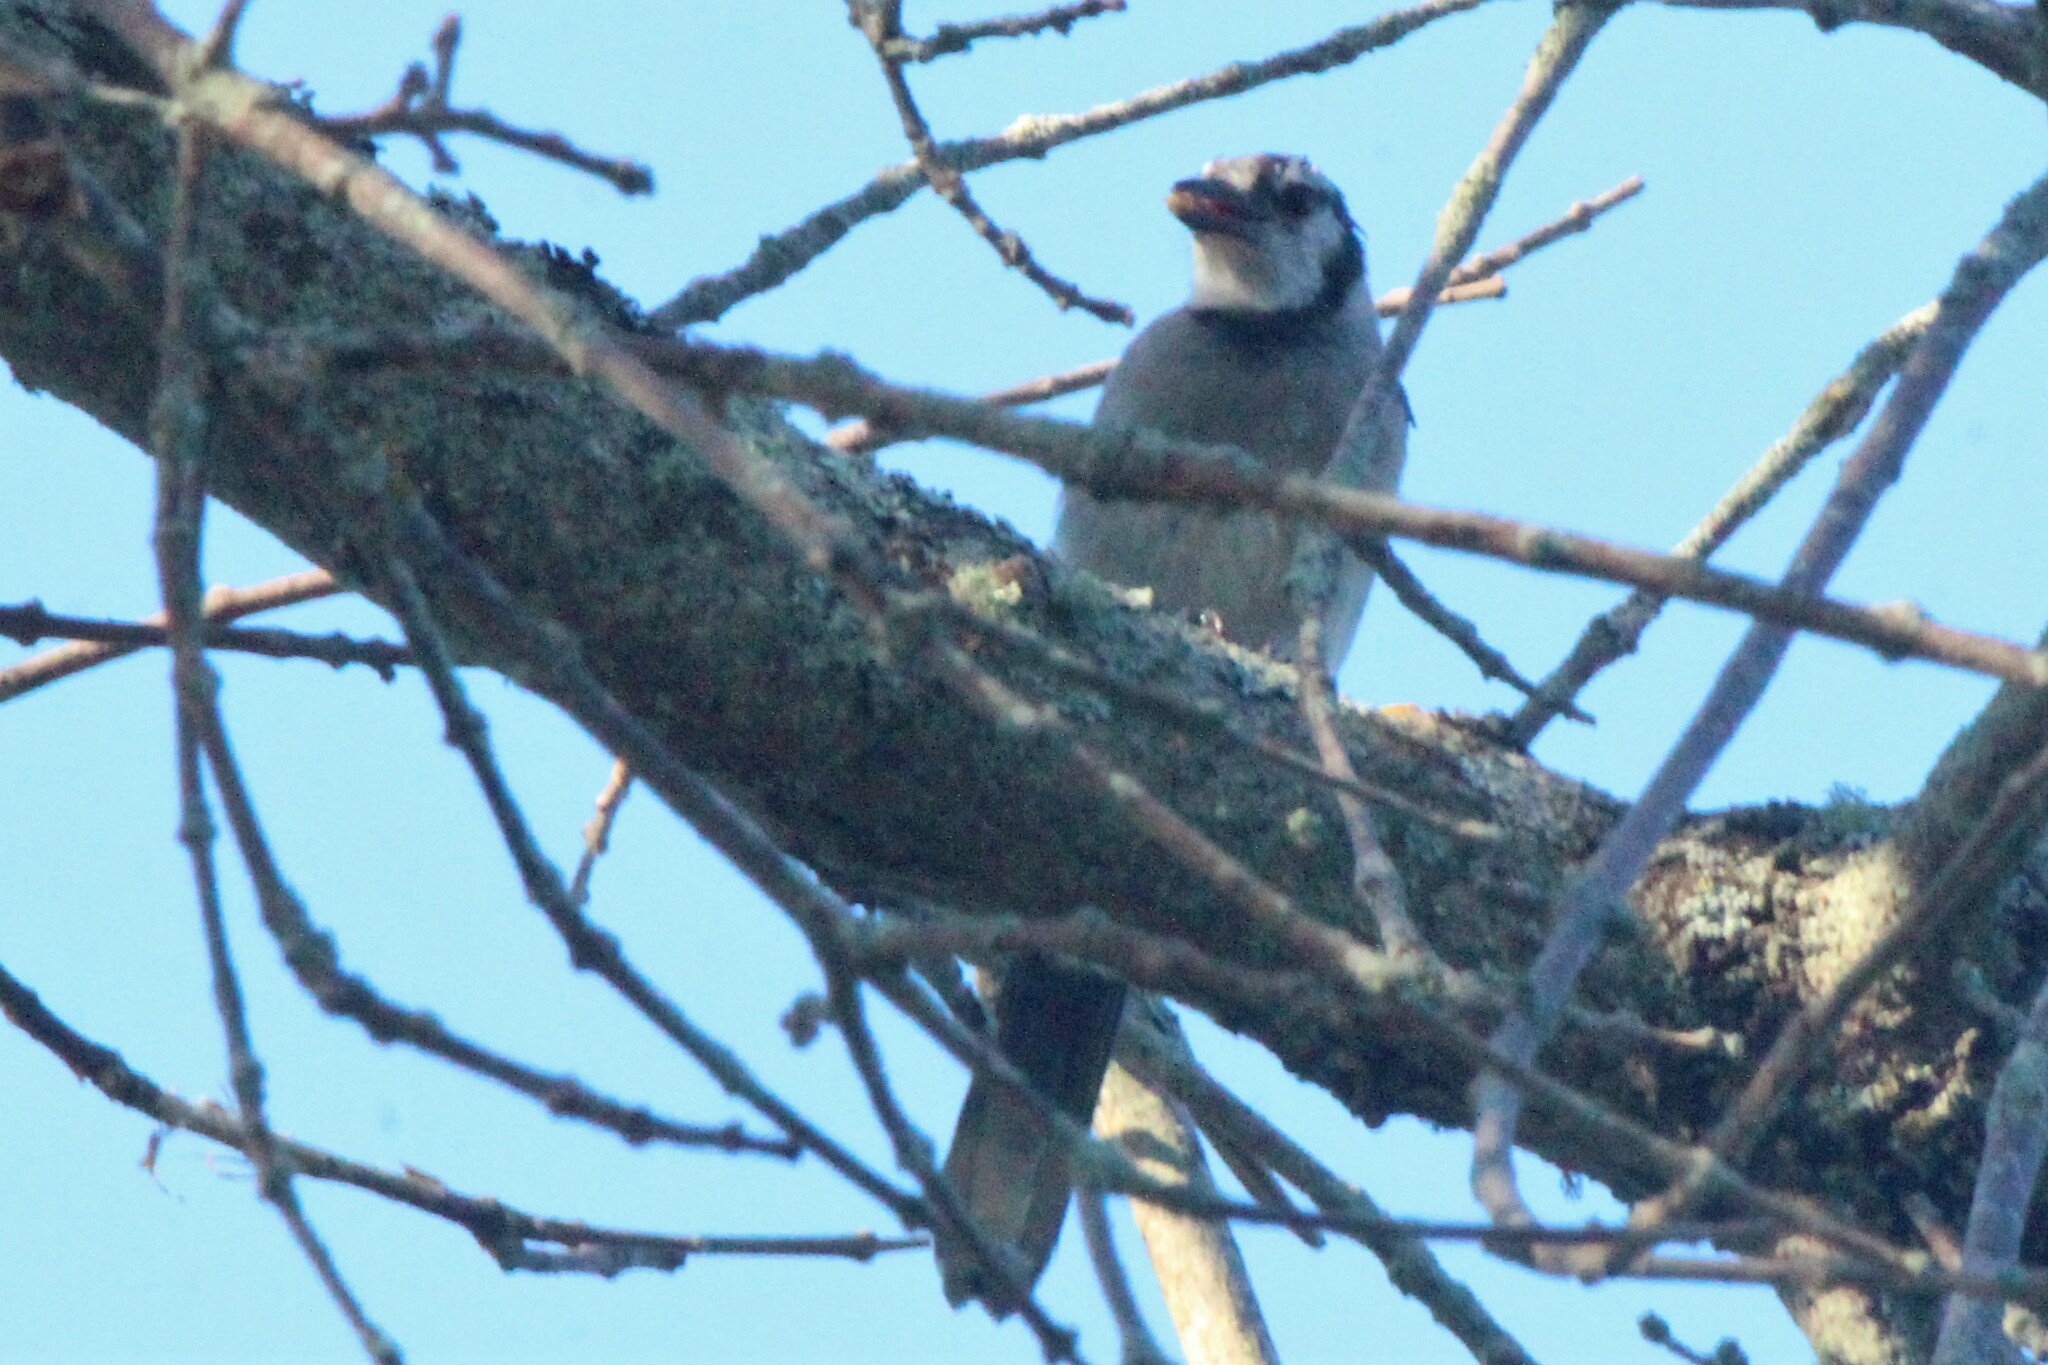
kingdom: Animalia
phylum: Chordata
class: Aves
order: Passeriformes
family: Corvidae
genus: Cyanocitta
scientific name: Cyanocitta cristata
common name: Blue jay
